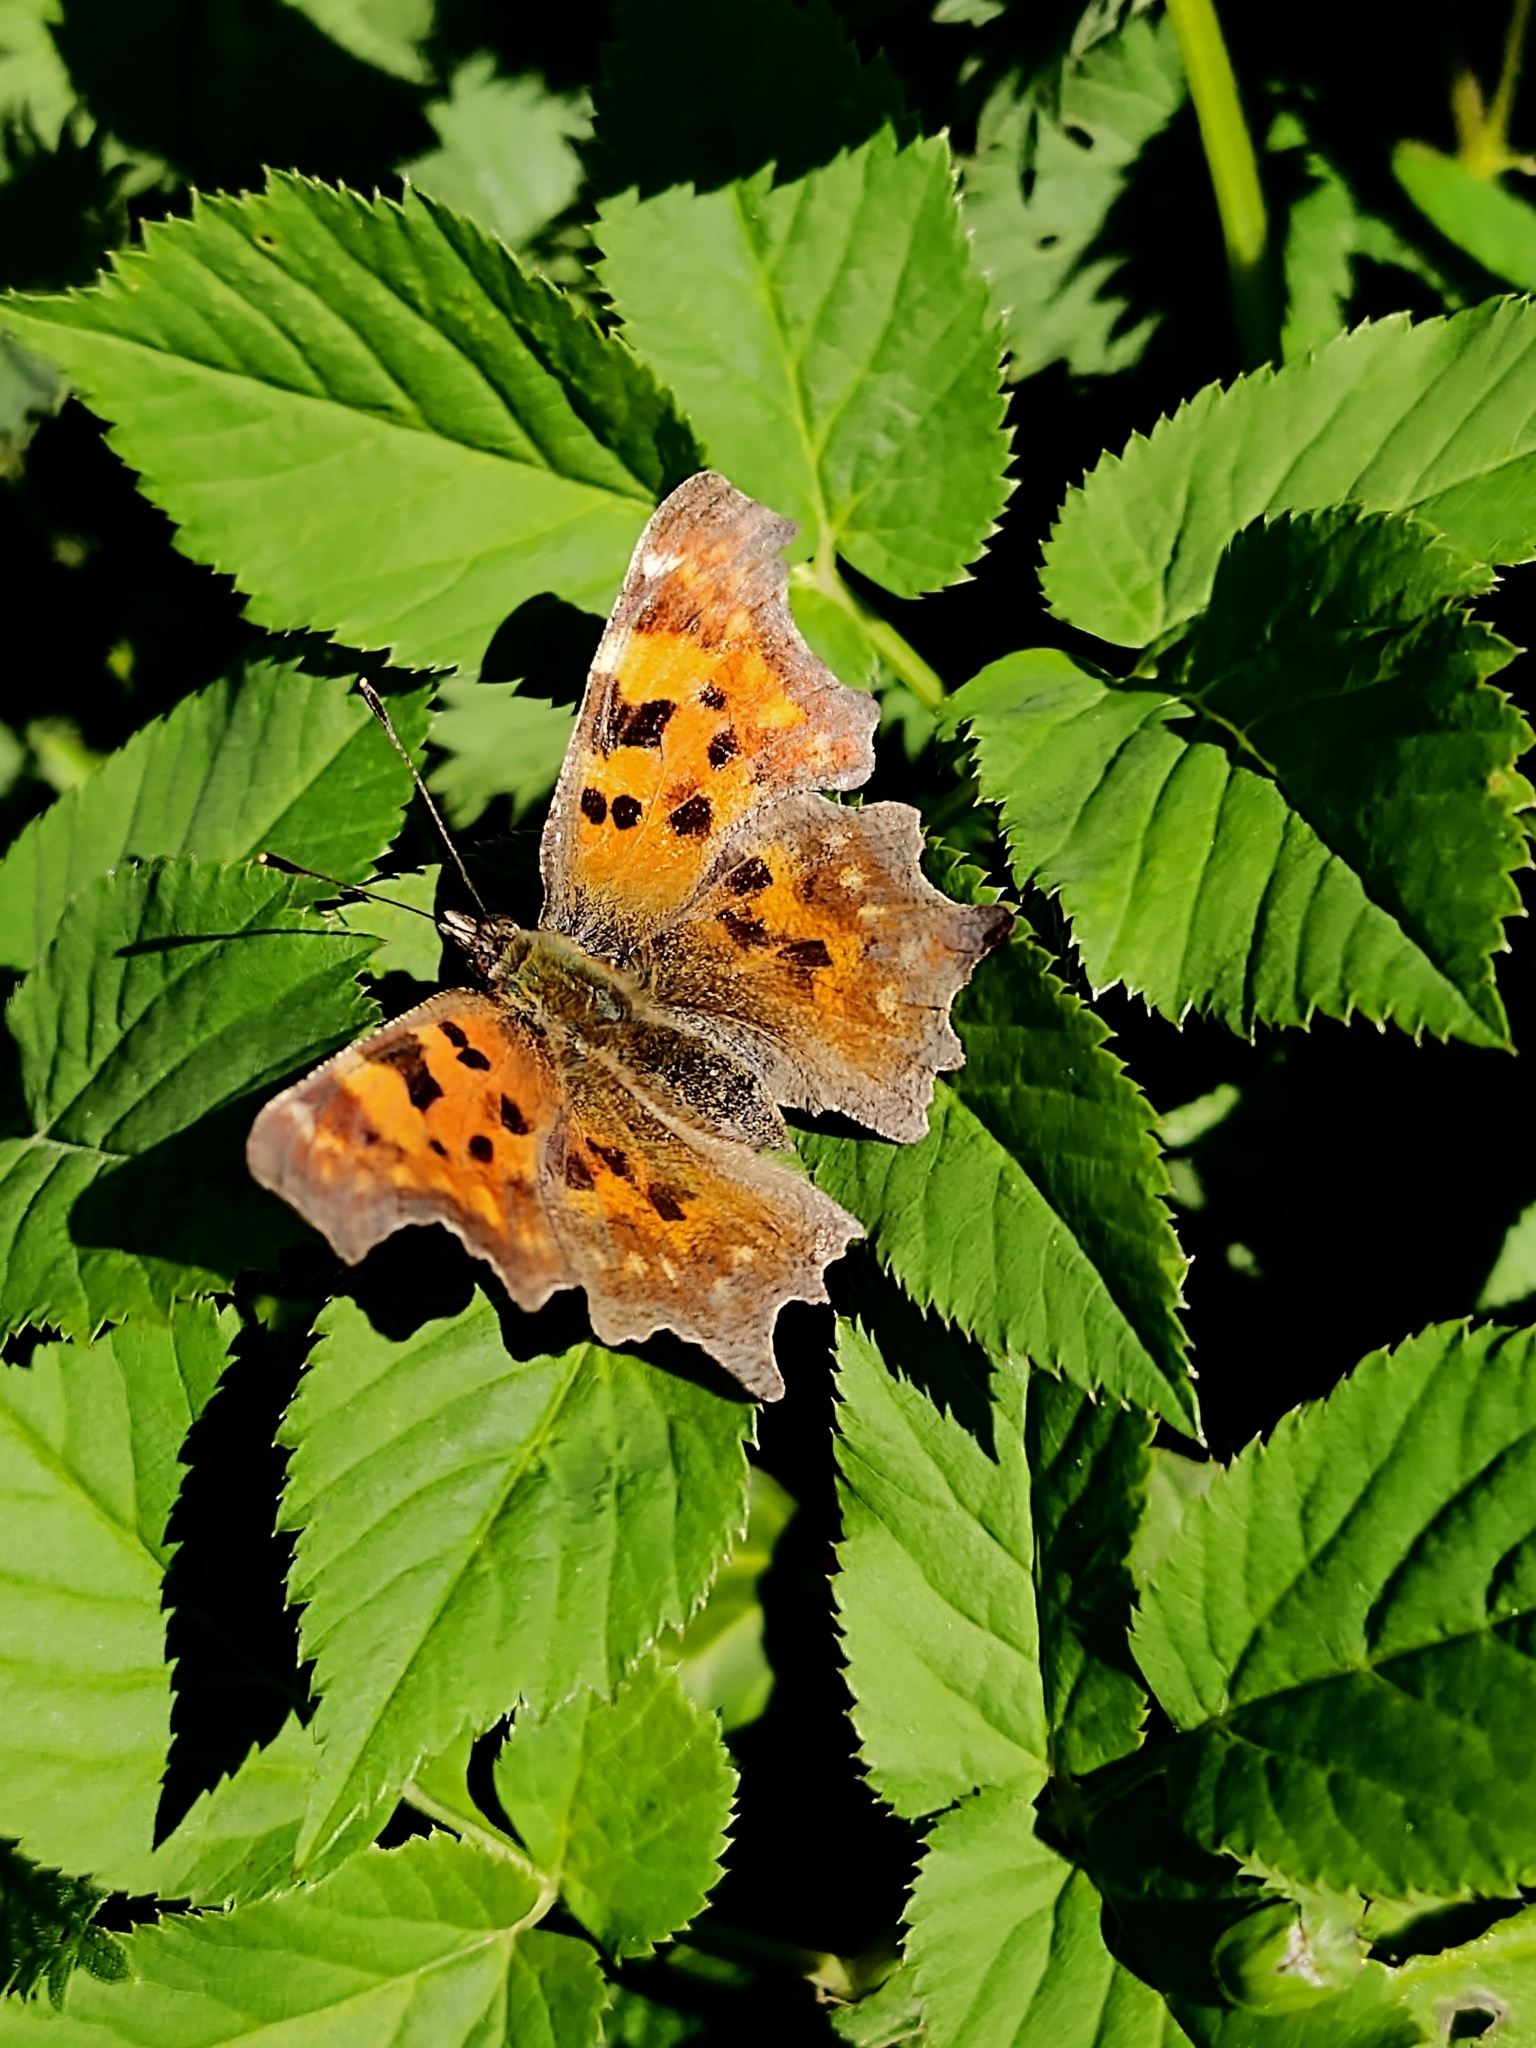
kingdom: Animalia
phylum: Arthropoda
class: Insecta
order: Lepidoptera
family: Nymphalidae
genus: Polygonia
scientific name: Polygonia c-album
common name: Comma
